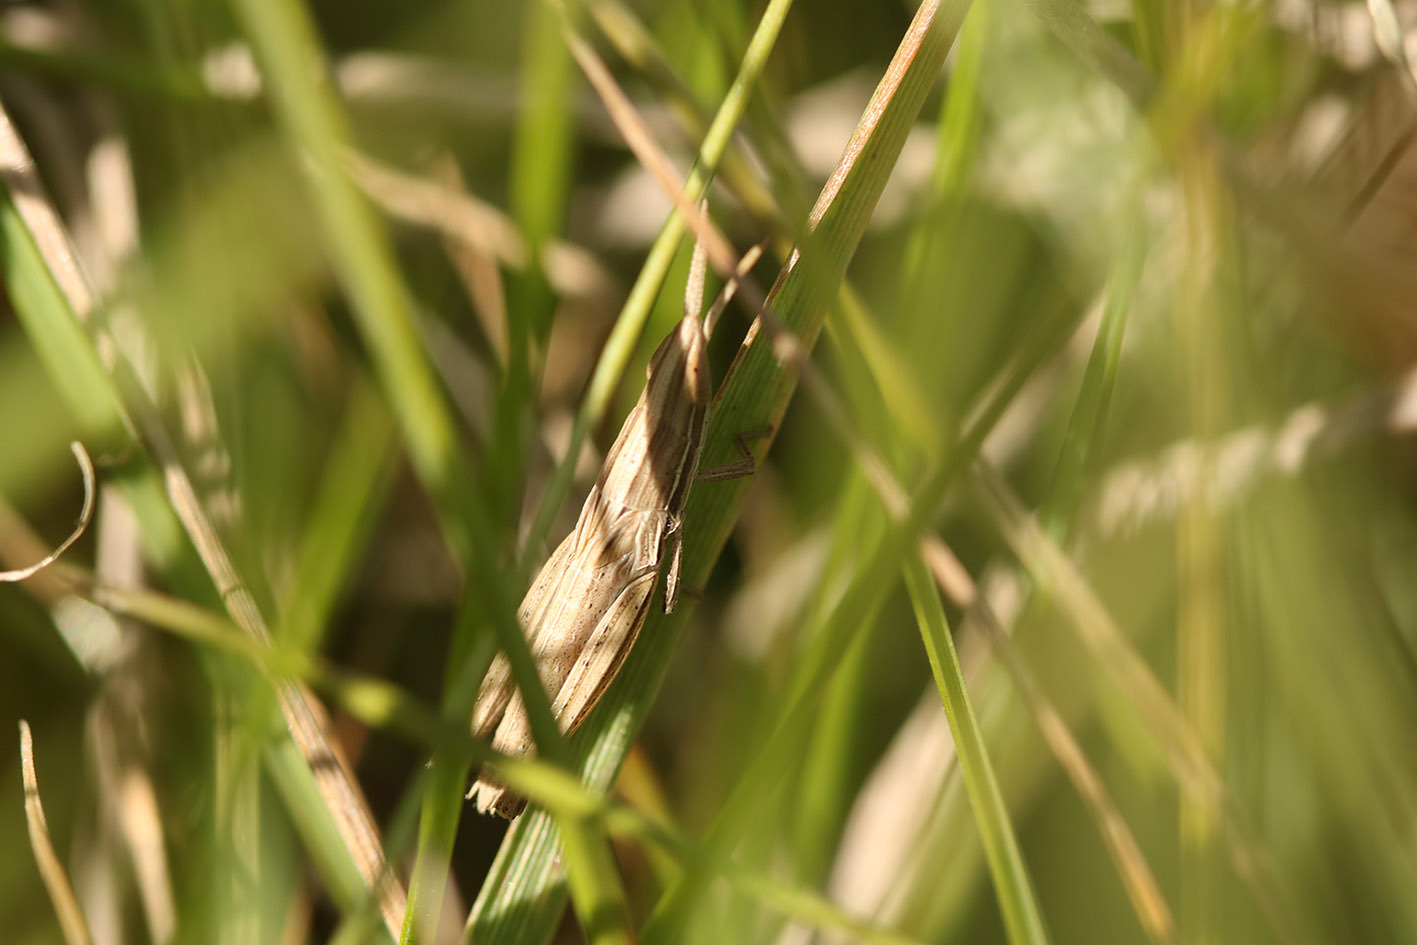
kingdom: Animalia
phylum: Arthropoda
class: Insecta
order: Orthoptera
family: Acrididae
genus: Sinipta
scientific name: Sinipta dalmani
